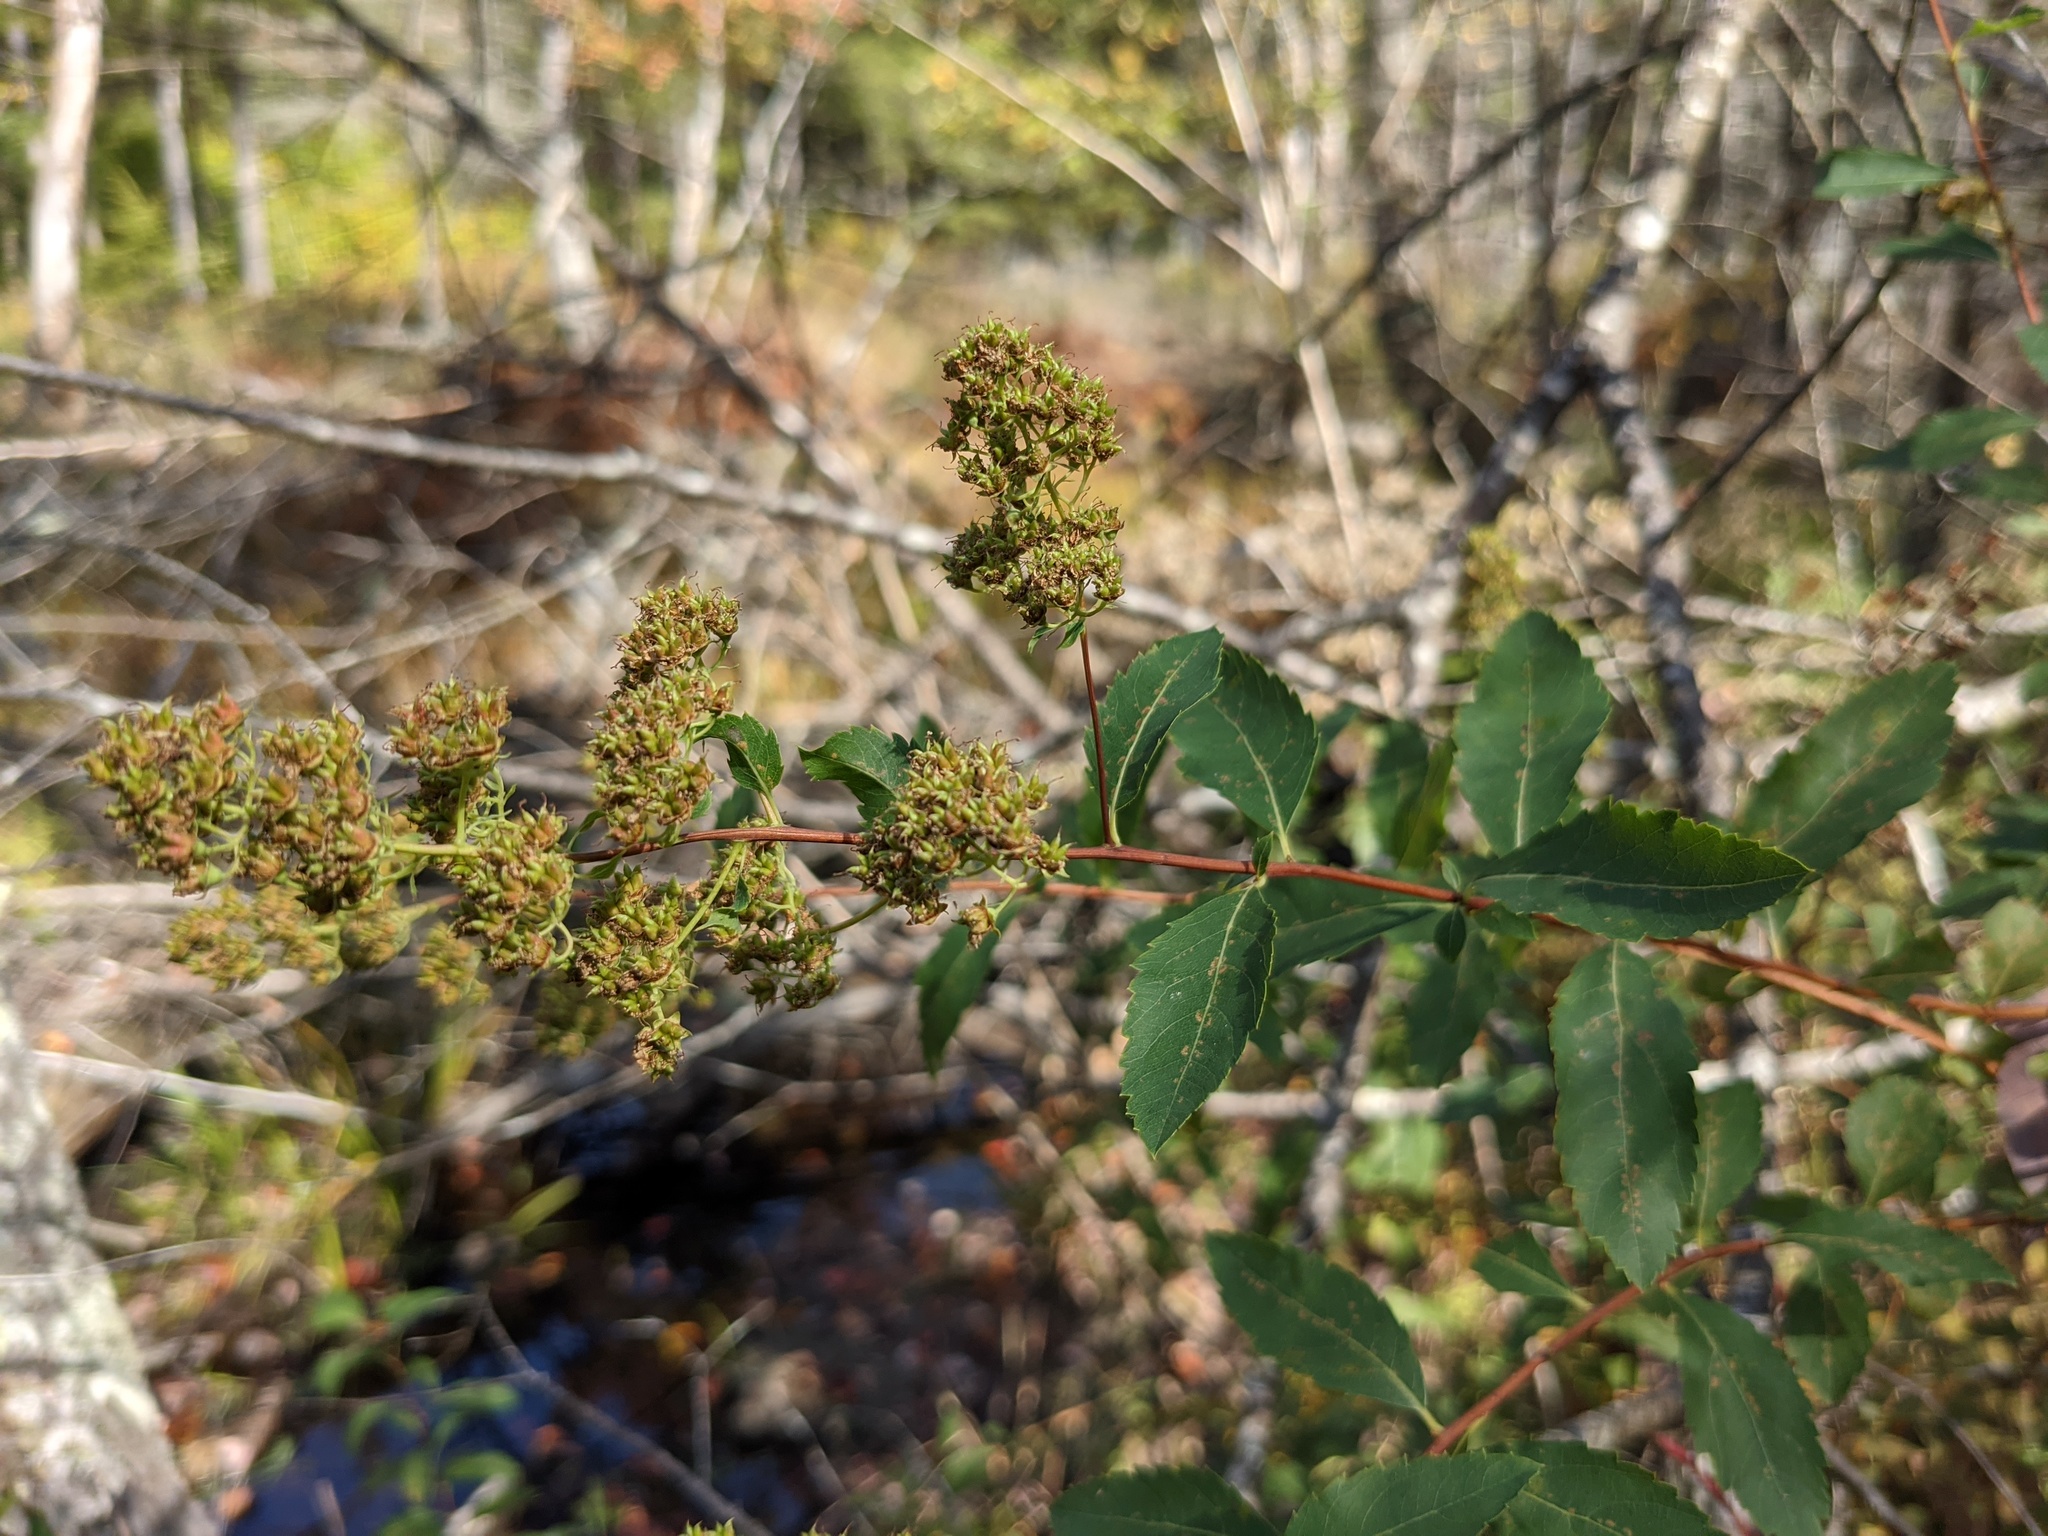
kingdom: Plantae
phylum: Tracheophyta
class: Magnoliopsida
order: Rosales
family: Rosaceae
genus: Spiraea
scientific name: Spiraea alba
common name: Pale bridewort
